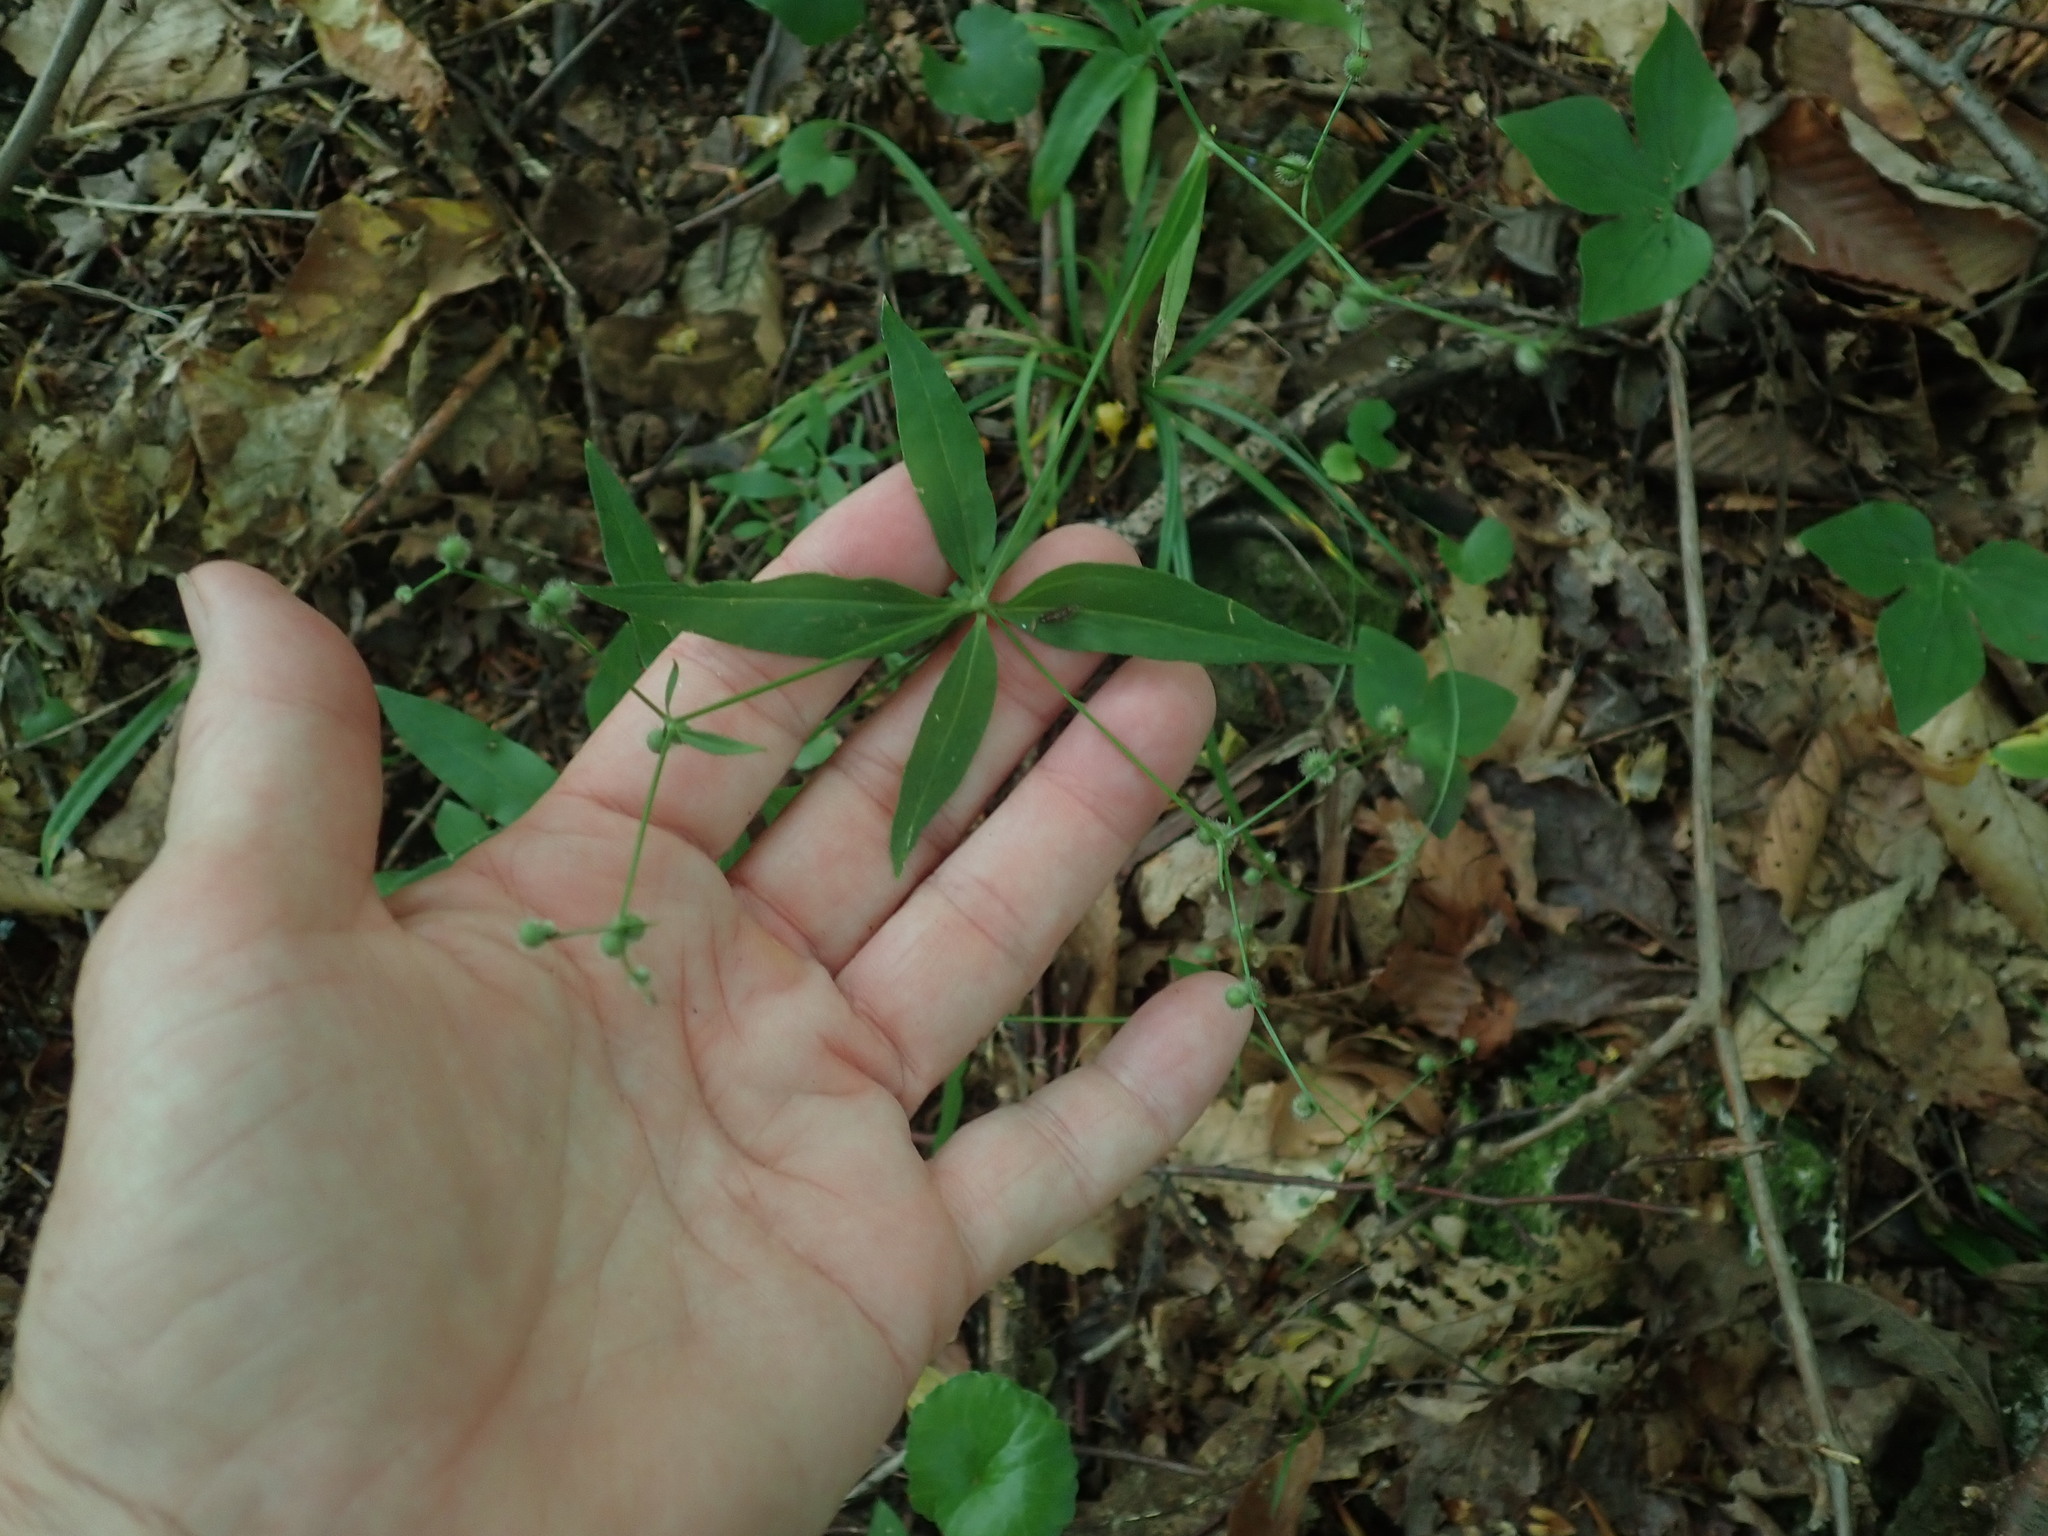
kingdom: Plantae
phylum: Tracheophyta
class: Magnoliopsida
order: Gentianales
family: Rubiaceae
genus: Galium
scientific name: Galium lanceolatum
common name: Lance-leaved wild licorice
